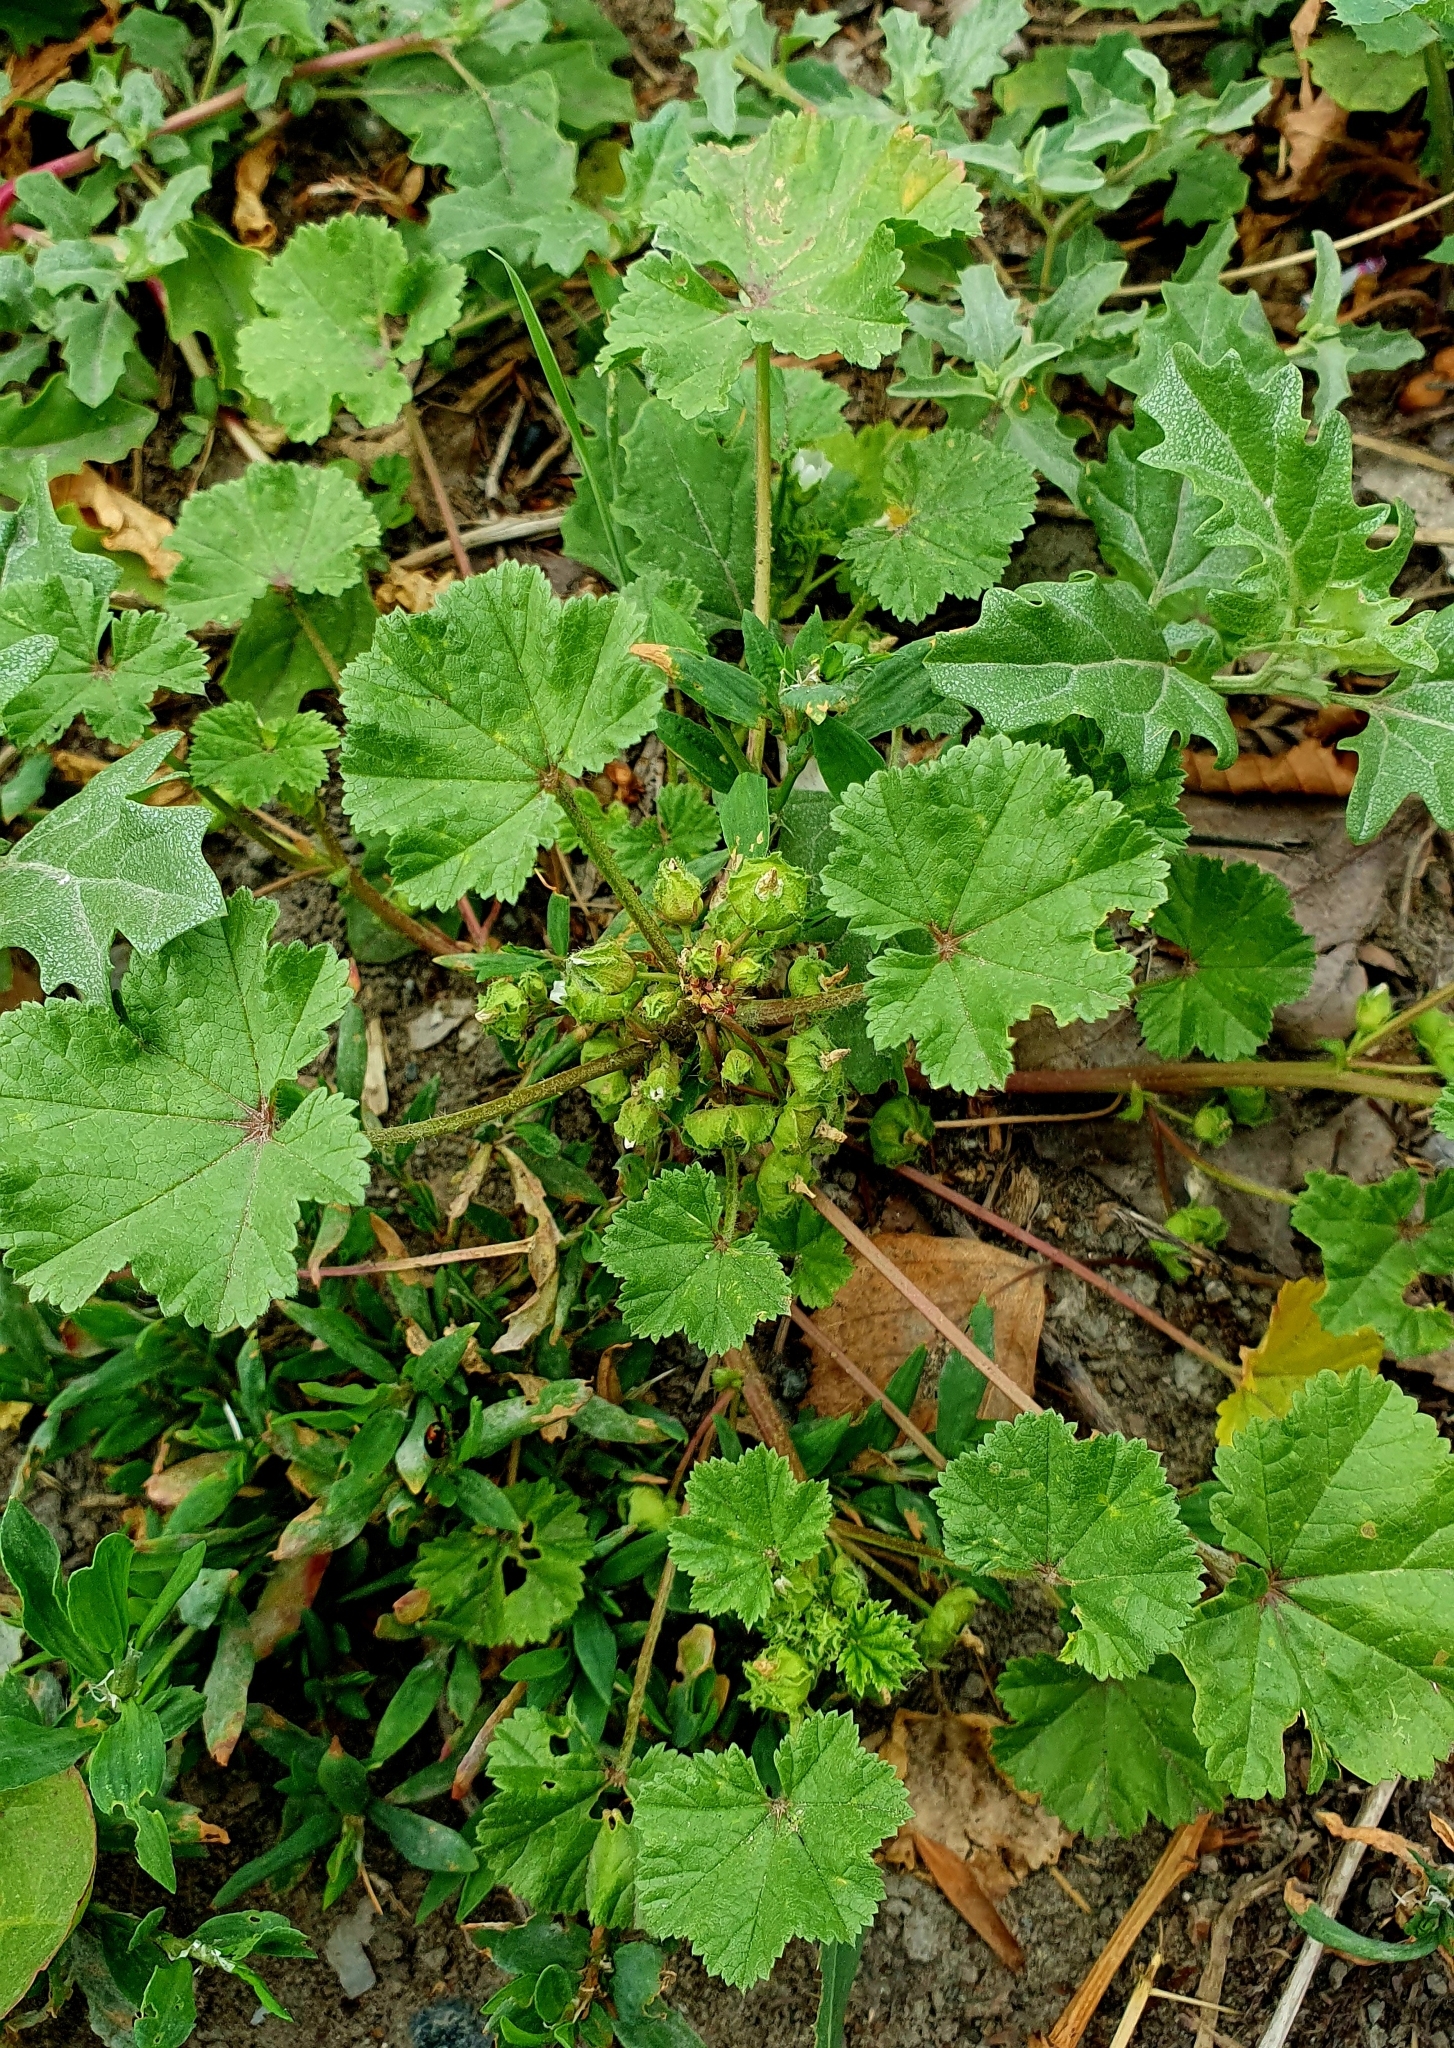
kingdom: Plantae
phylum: Tracheophyta
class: Magnoliopsida
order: Malvales
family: Malvaceae
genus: Malva
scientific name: Malva pusilla
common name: Small mallow
